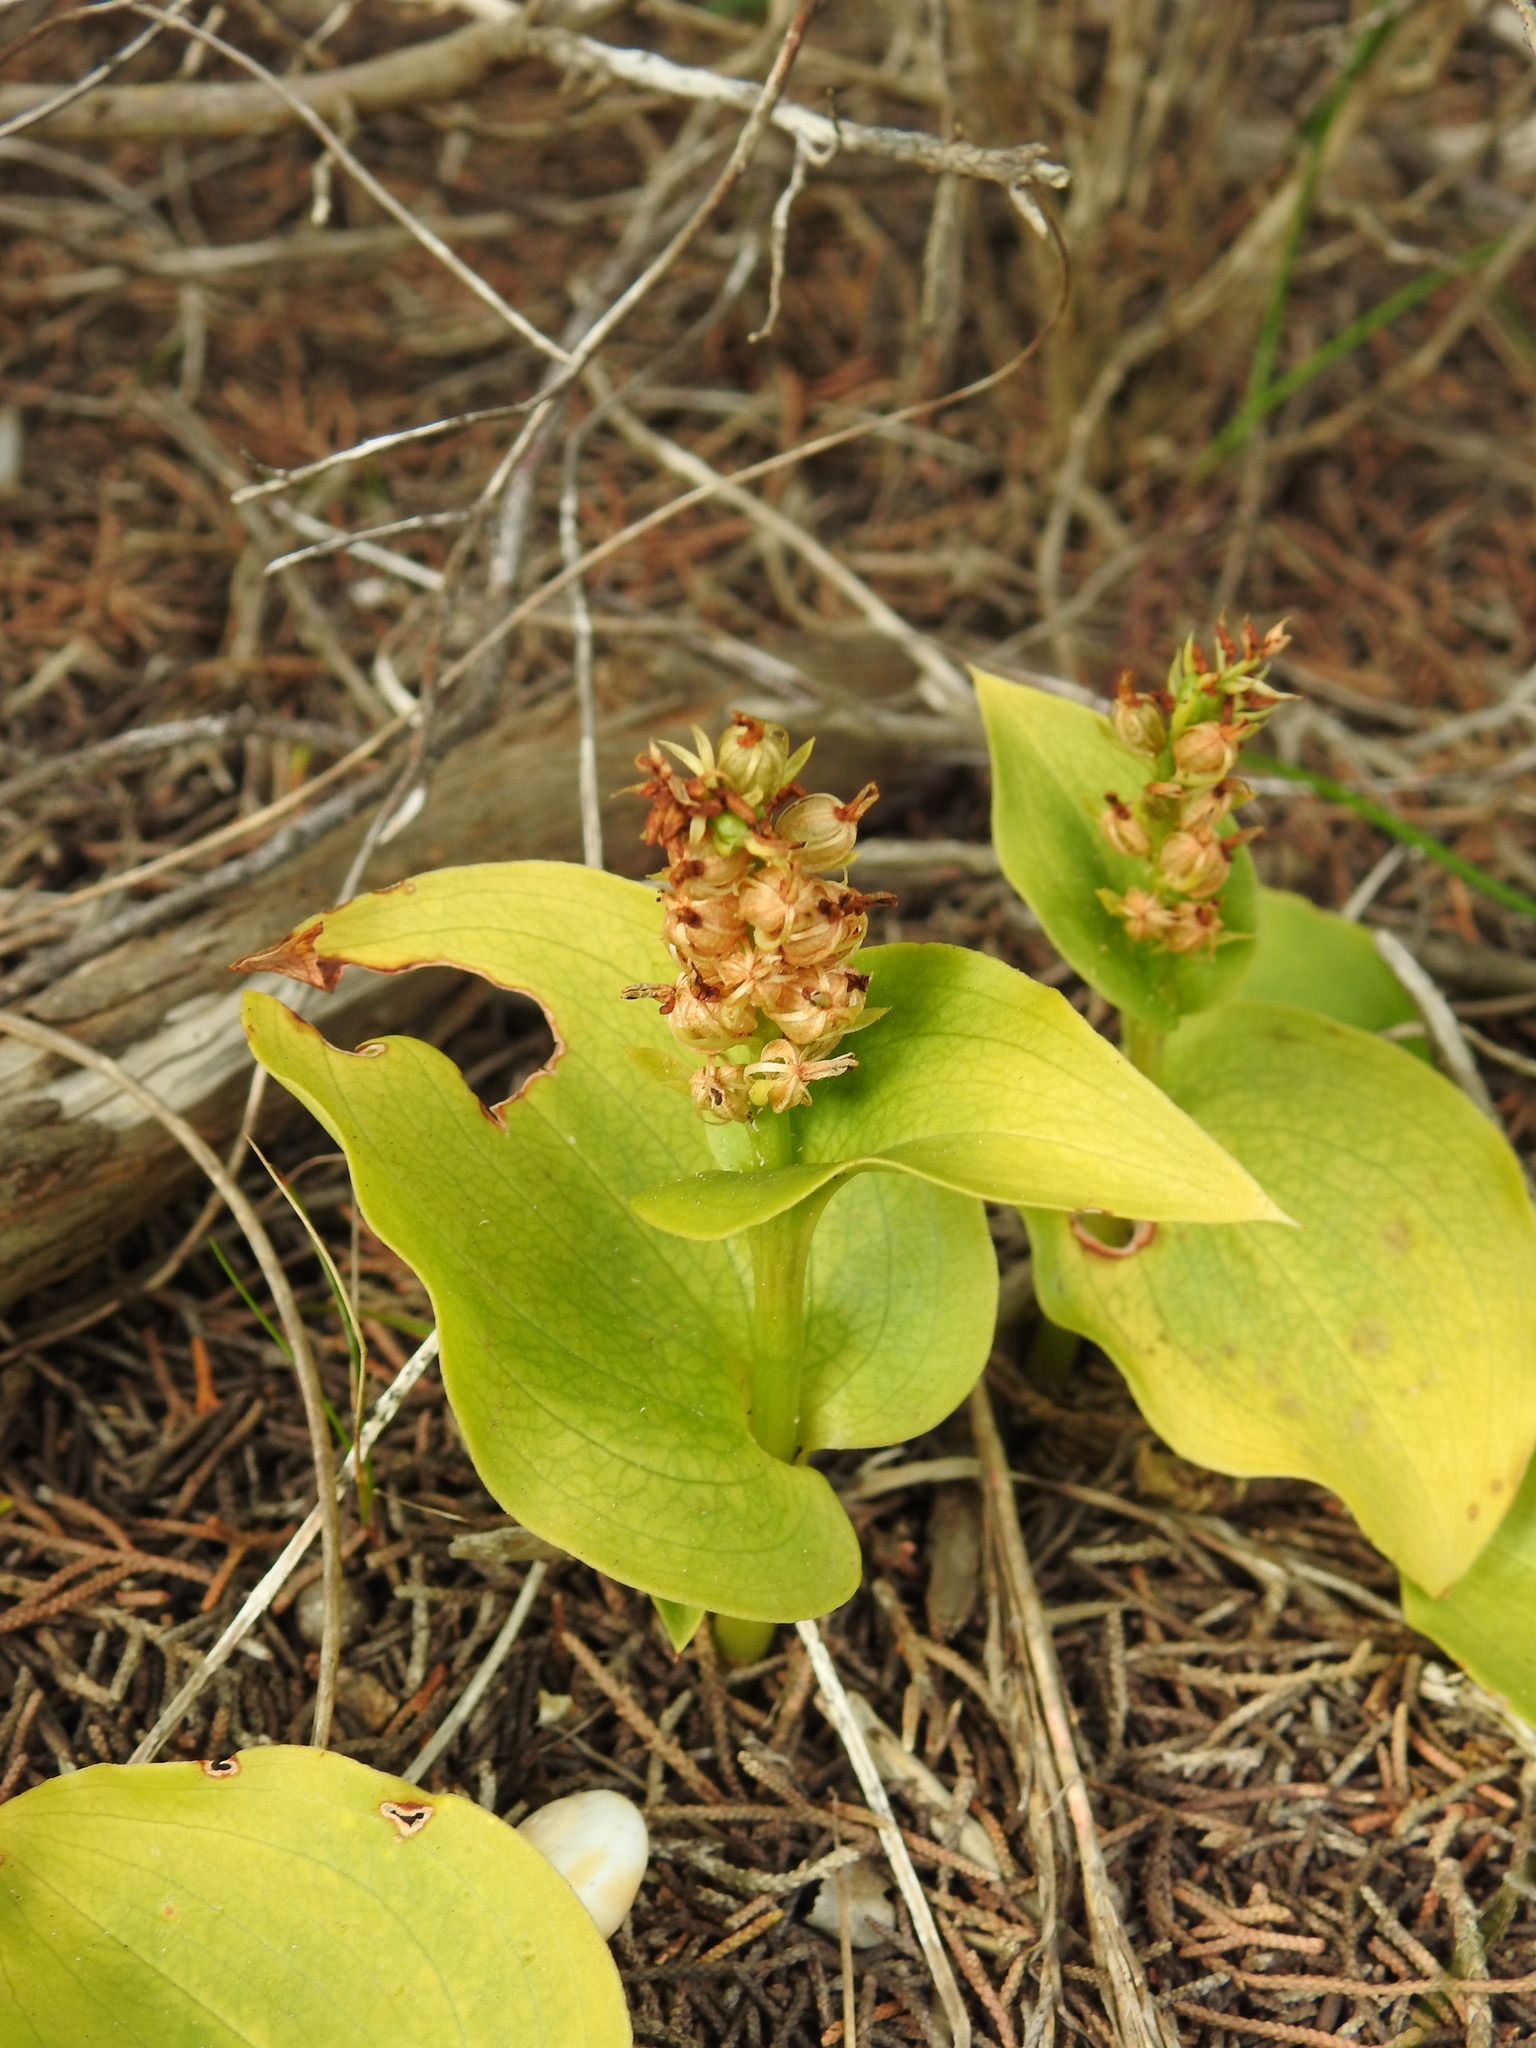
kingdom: Plantae
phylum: Tracheophyta
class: Liliopsida
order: Asparagales
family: Orchidaceae
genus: Gennaria
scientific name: Gennaria diphylla
